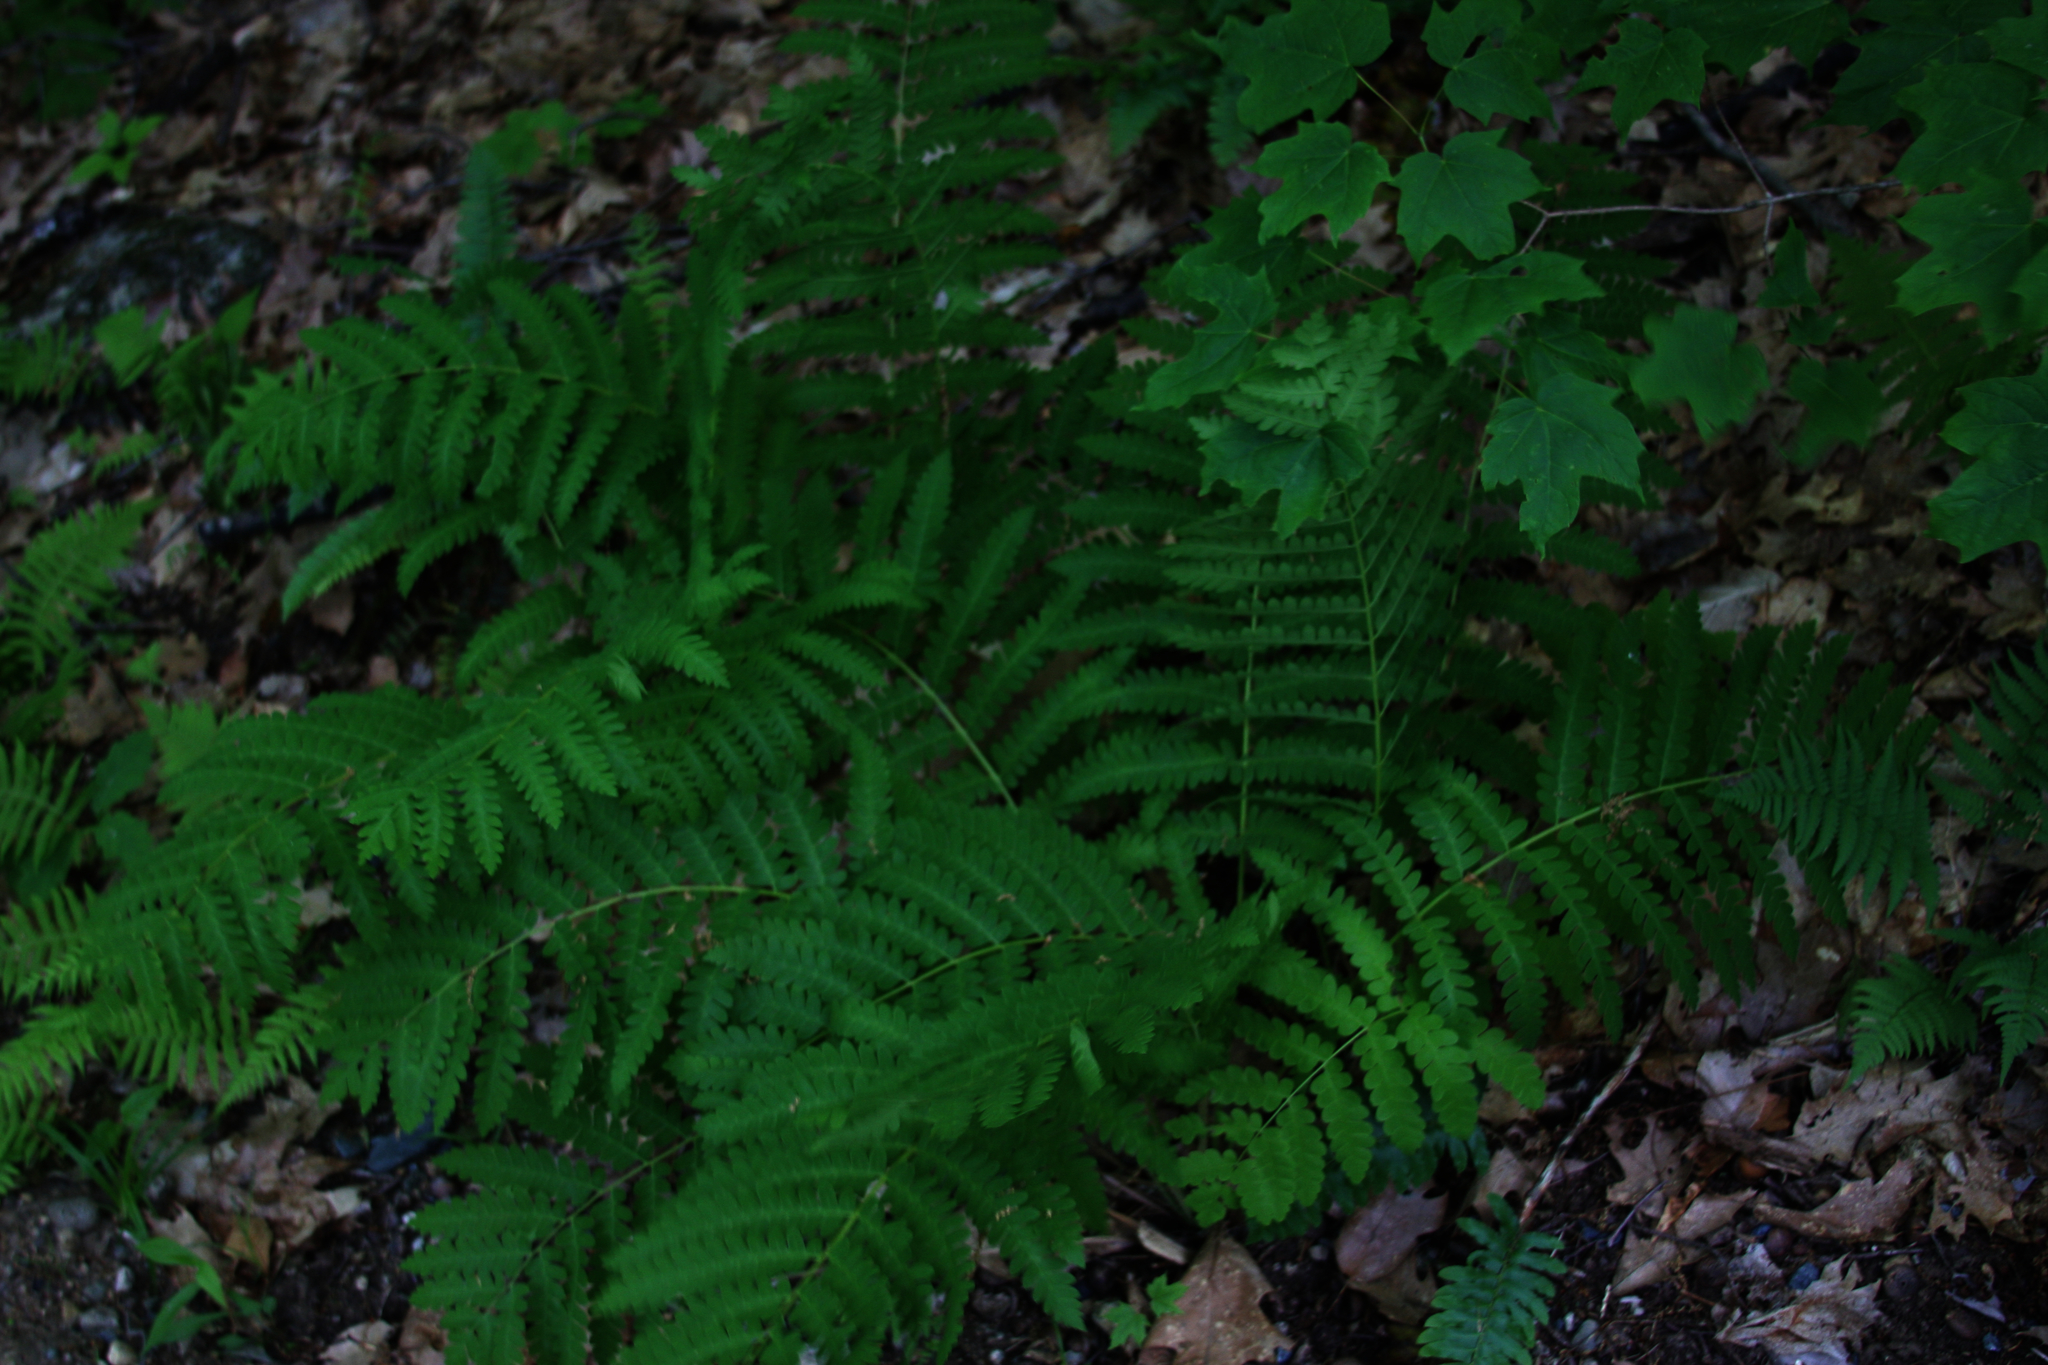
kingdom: Plantae
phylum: Tracheophyta
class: Polypodiopsida
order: Osmundales
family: Osmundaceae
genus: Claytosmunda
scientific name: Claytosmunda claytoniana
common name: Clayton's fern
